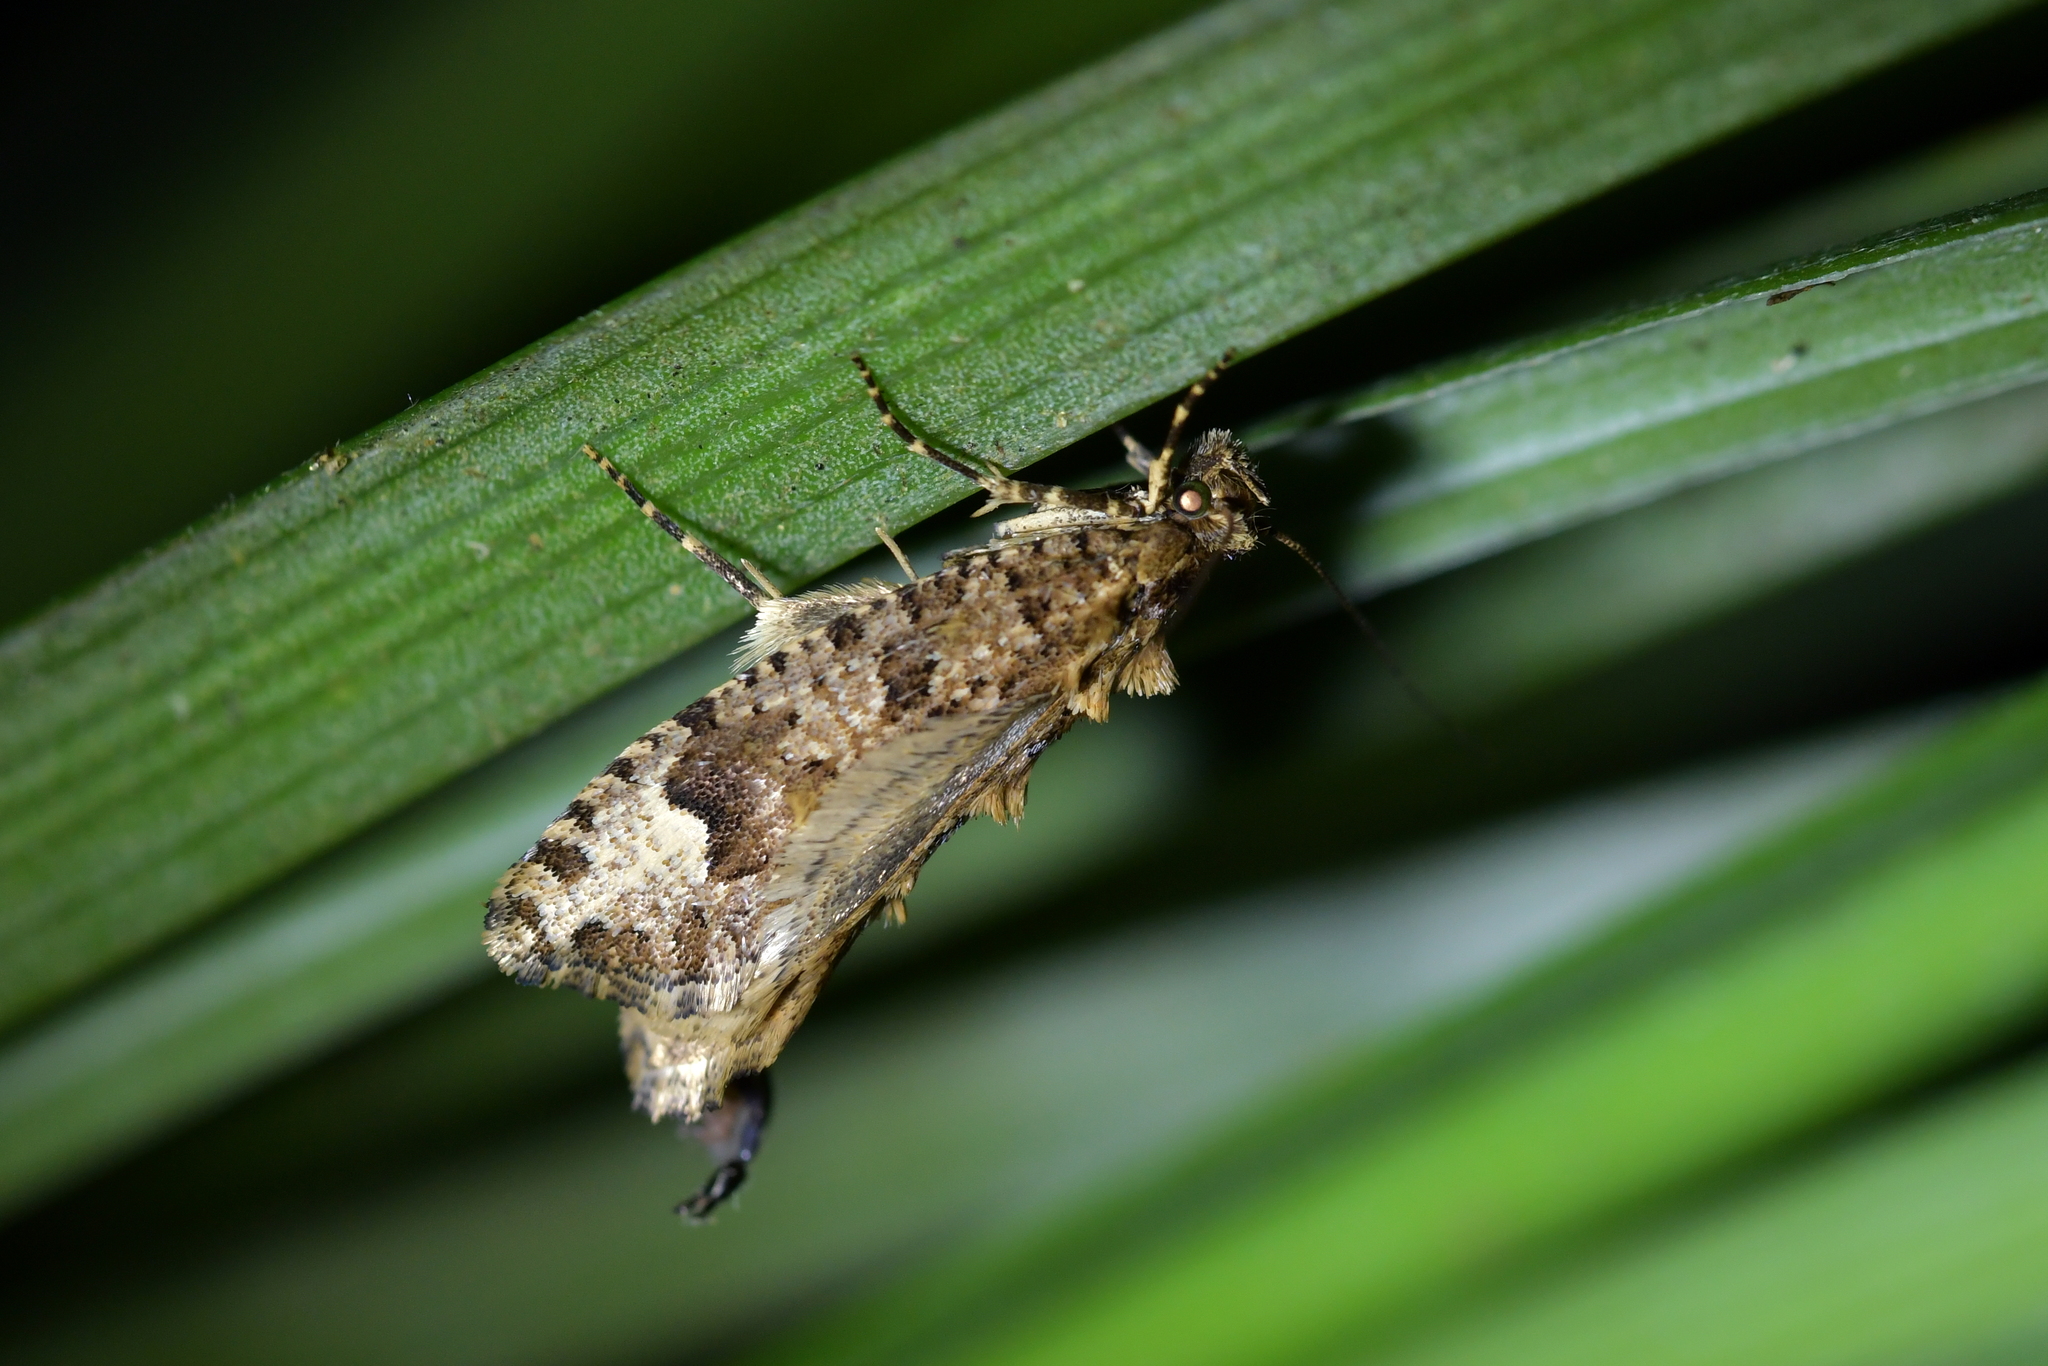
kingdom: Animalia
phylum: Arthropoda
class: Insecta
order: Lepidoptera
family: Tineidae
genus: Lysiphragma
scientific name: Lysiphragma epixyla
